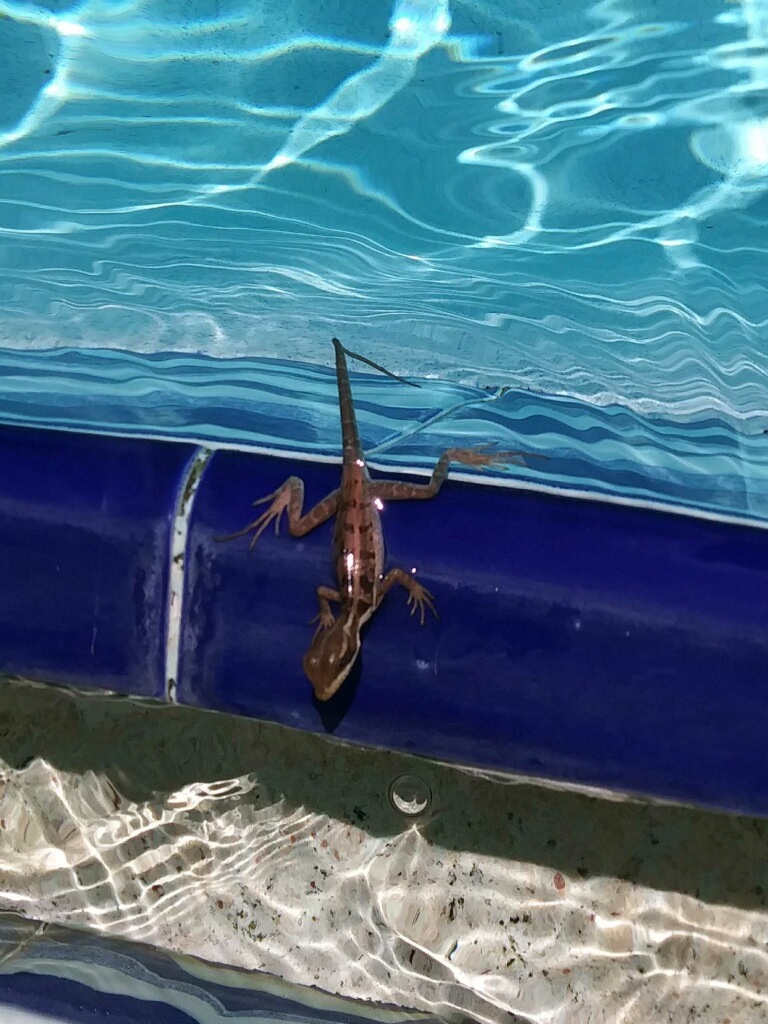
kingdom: Animalia
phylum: Chordata
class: Squamata
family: Corytophanidae
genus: Basiliscus
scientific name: Basiliscus vittatus
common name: Brown basilisk
